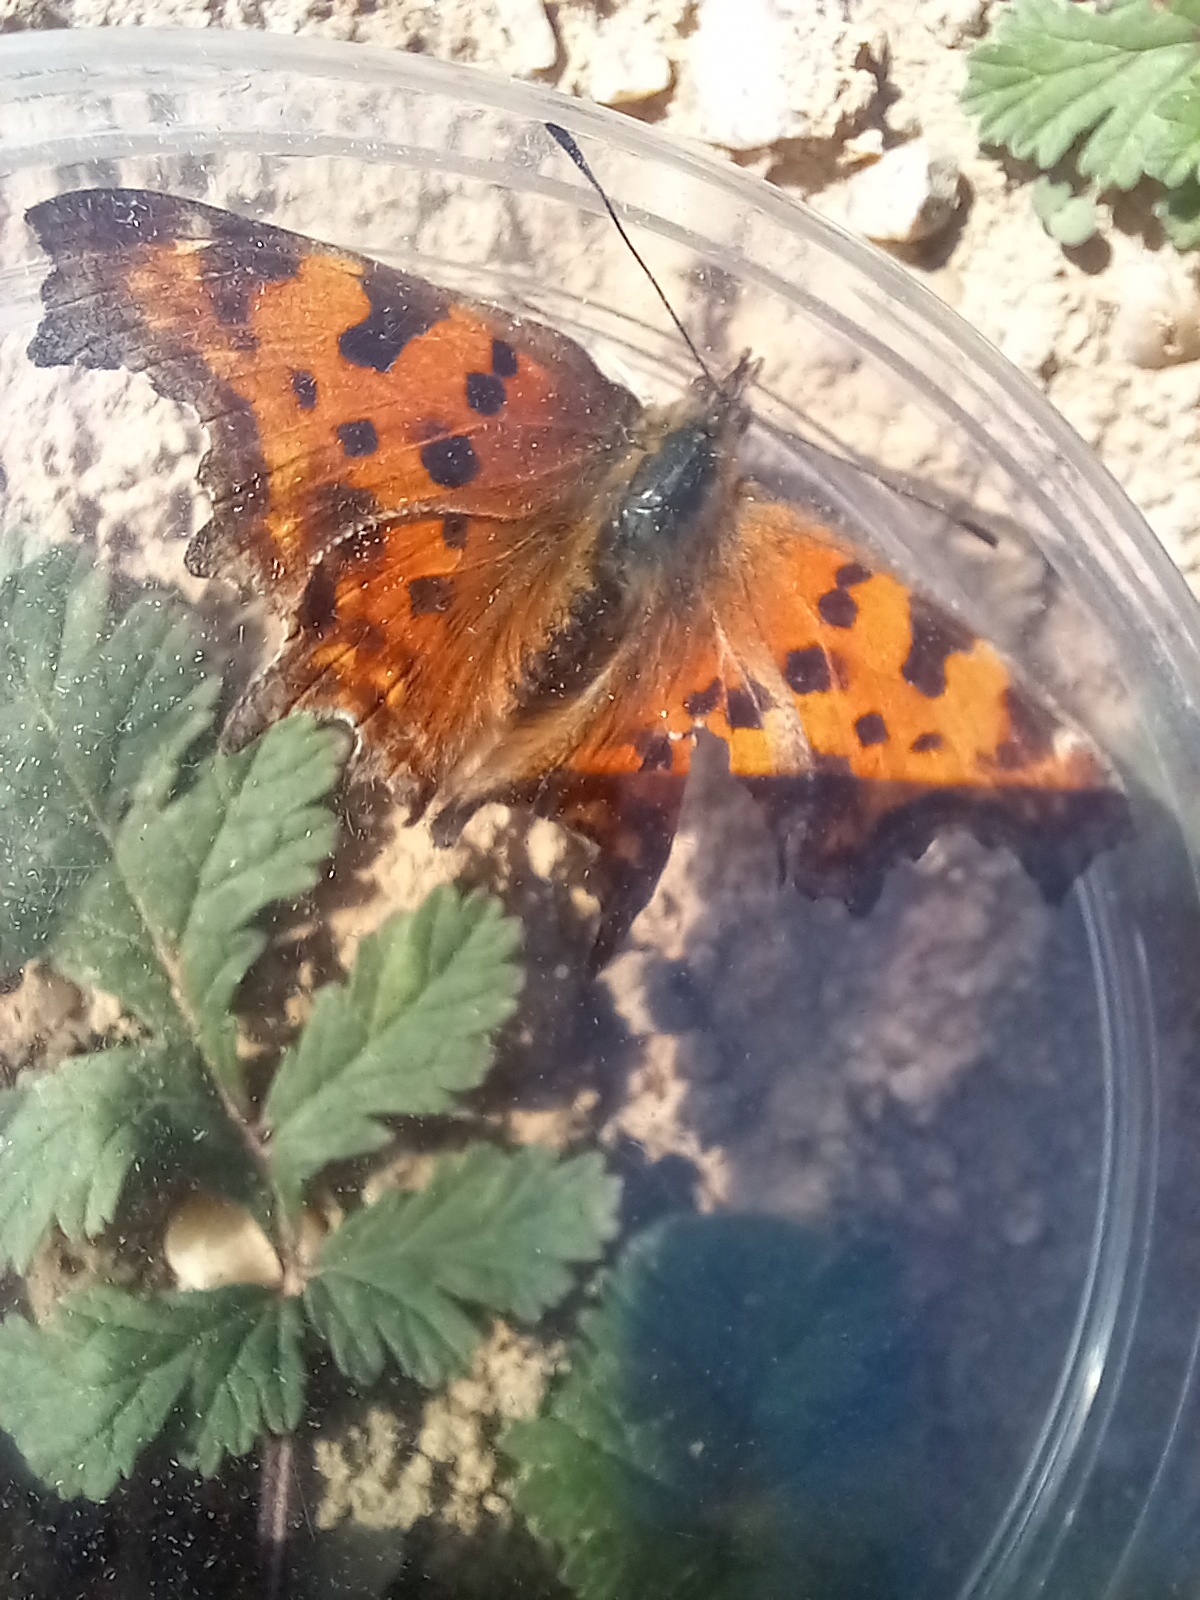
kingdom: Animalia
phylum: Arthropoda
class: Insecta
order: Lepidoptera
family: Nymphalidae
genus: Polygonia
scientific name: Polygonia c-album
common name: Comma
